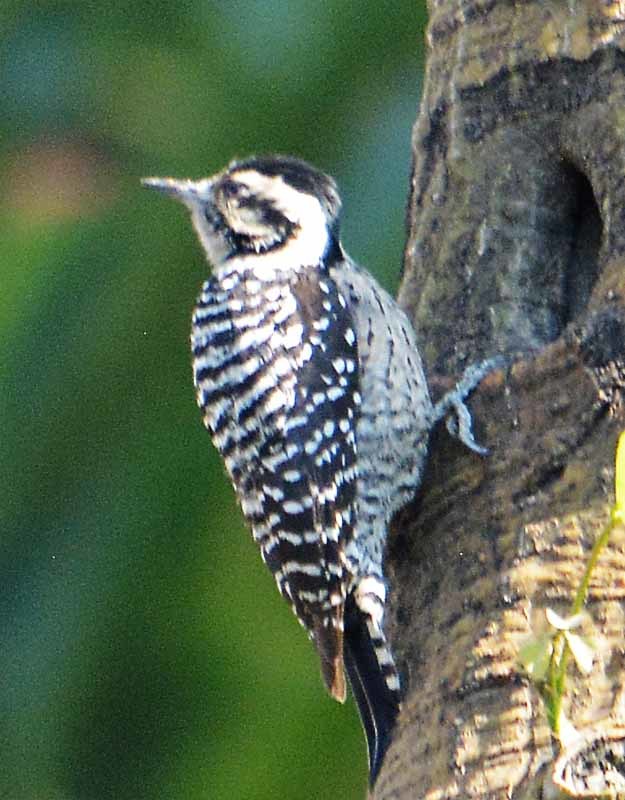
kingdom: Animalia
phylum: Chordata
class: Aves
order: Piciformes
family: Picidae
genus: Dryobates
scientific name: Dryobates scalaris
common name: Ladder-backed woodpecker
